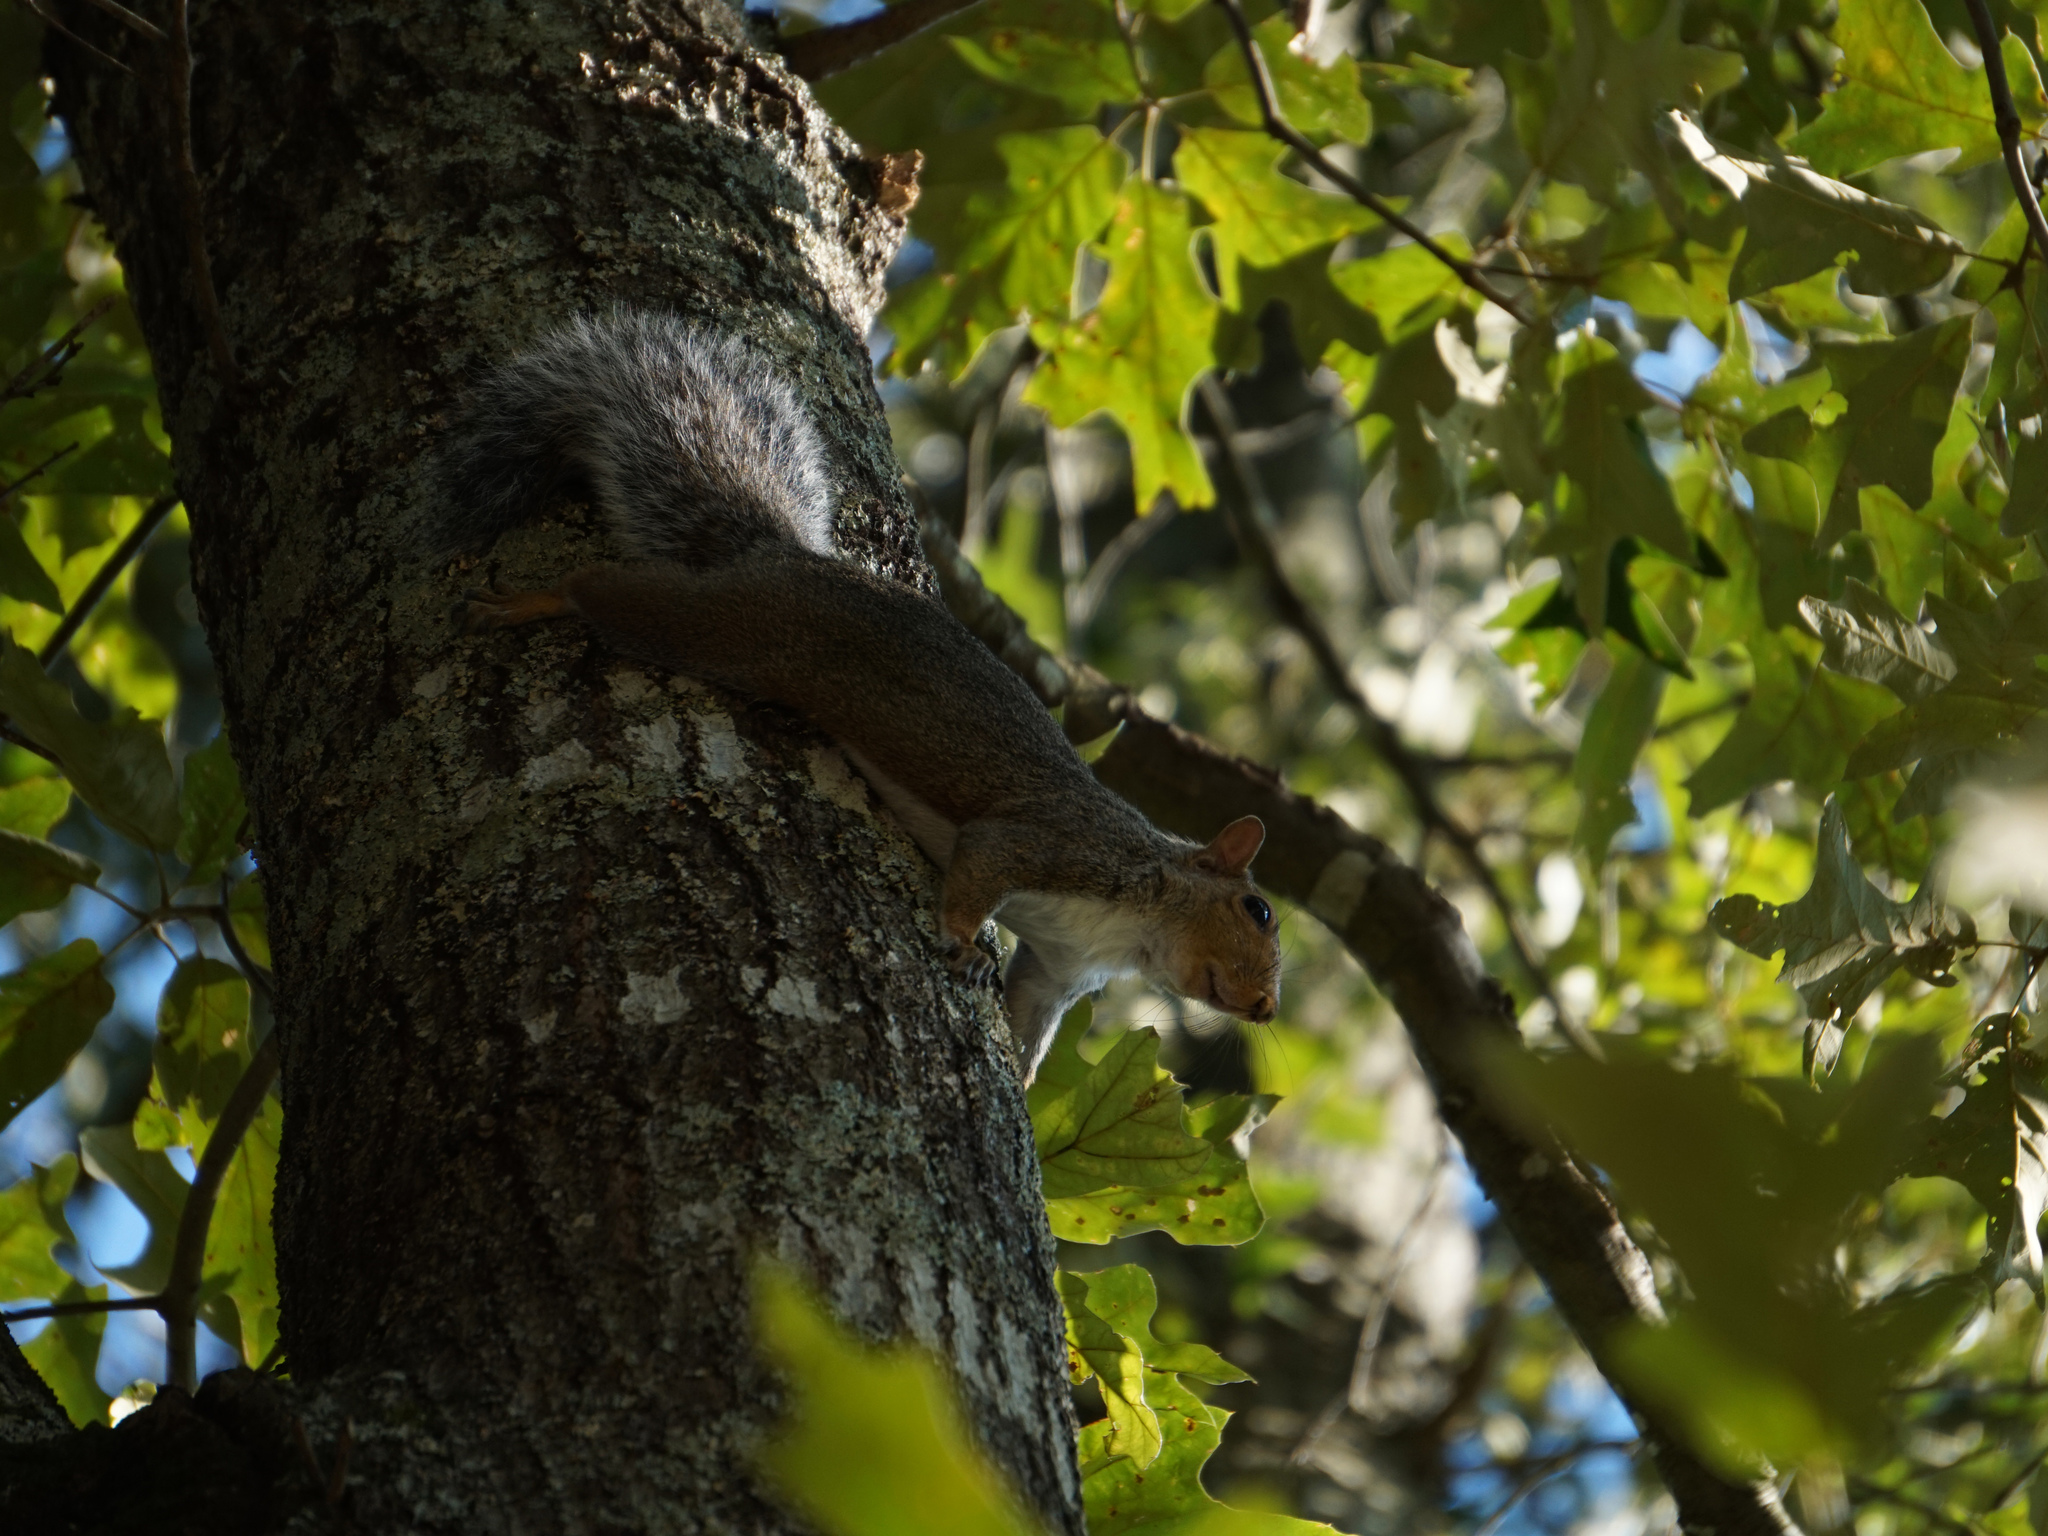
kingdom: Animalia
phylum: Chordata
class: Mammalia
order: Rodentia
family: Sciuridae
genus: Sciurus
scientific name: Sciurus carolinensis
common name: Eastern gray squirrel
